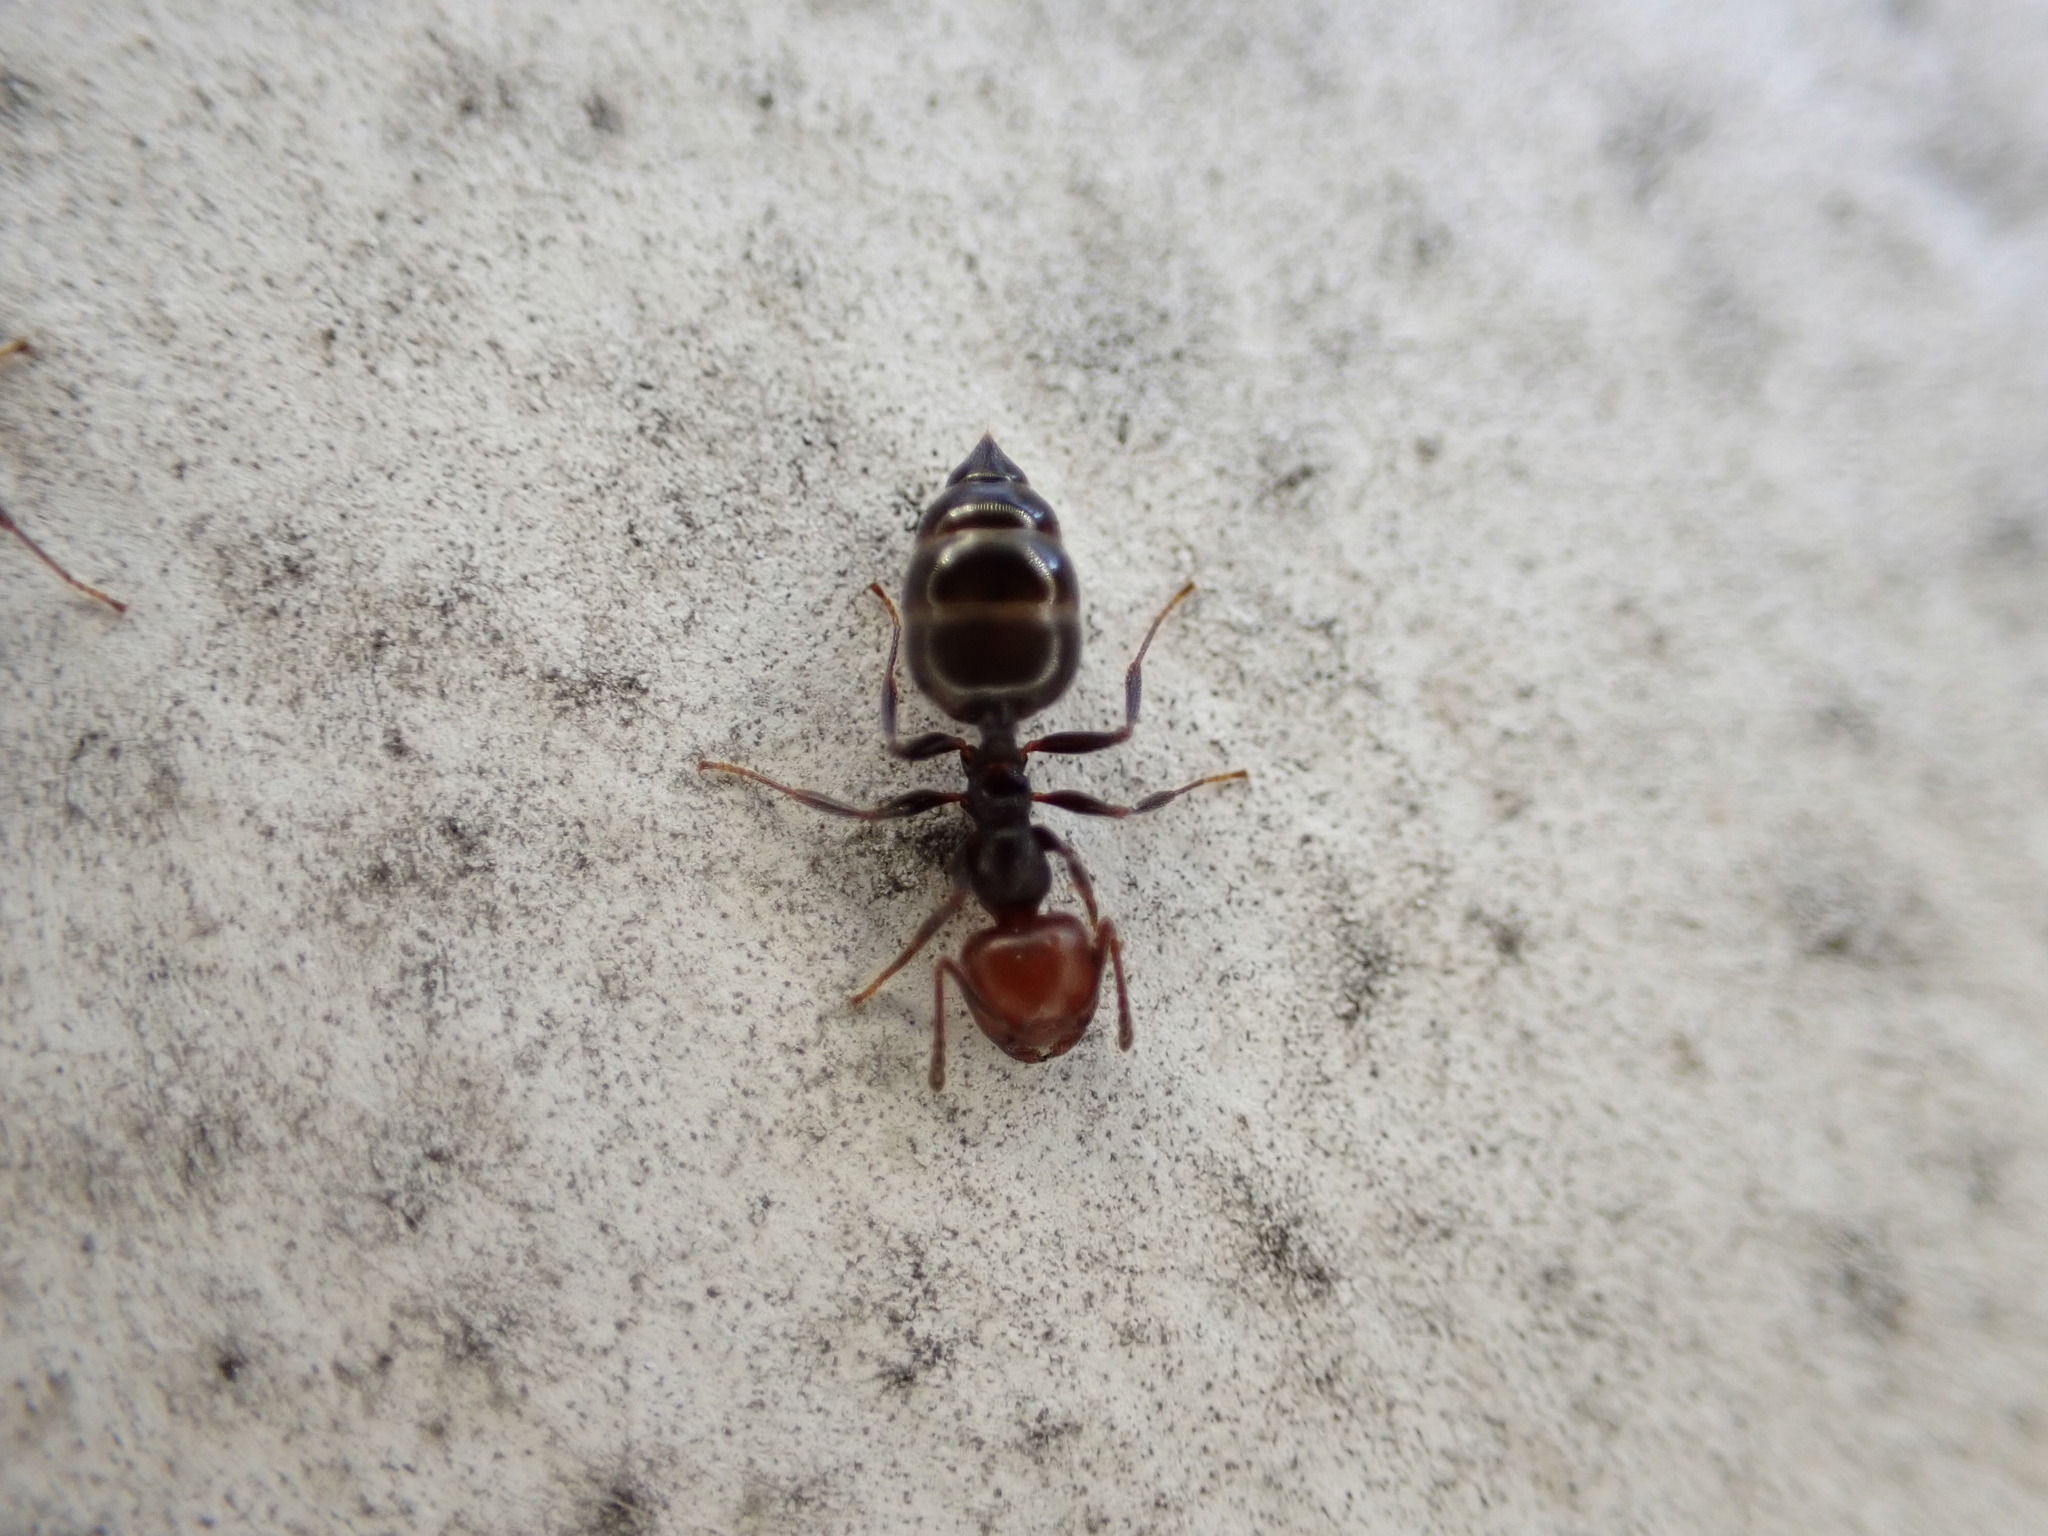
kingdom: Animalia
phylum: Arthropoda
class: Insecta
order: Hymenoptera
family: Formicidae
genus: Crematogaster
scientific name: Crematogaster scutellaris
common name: Fourmi du liège
